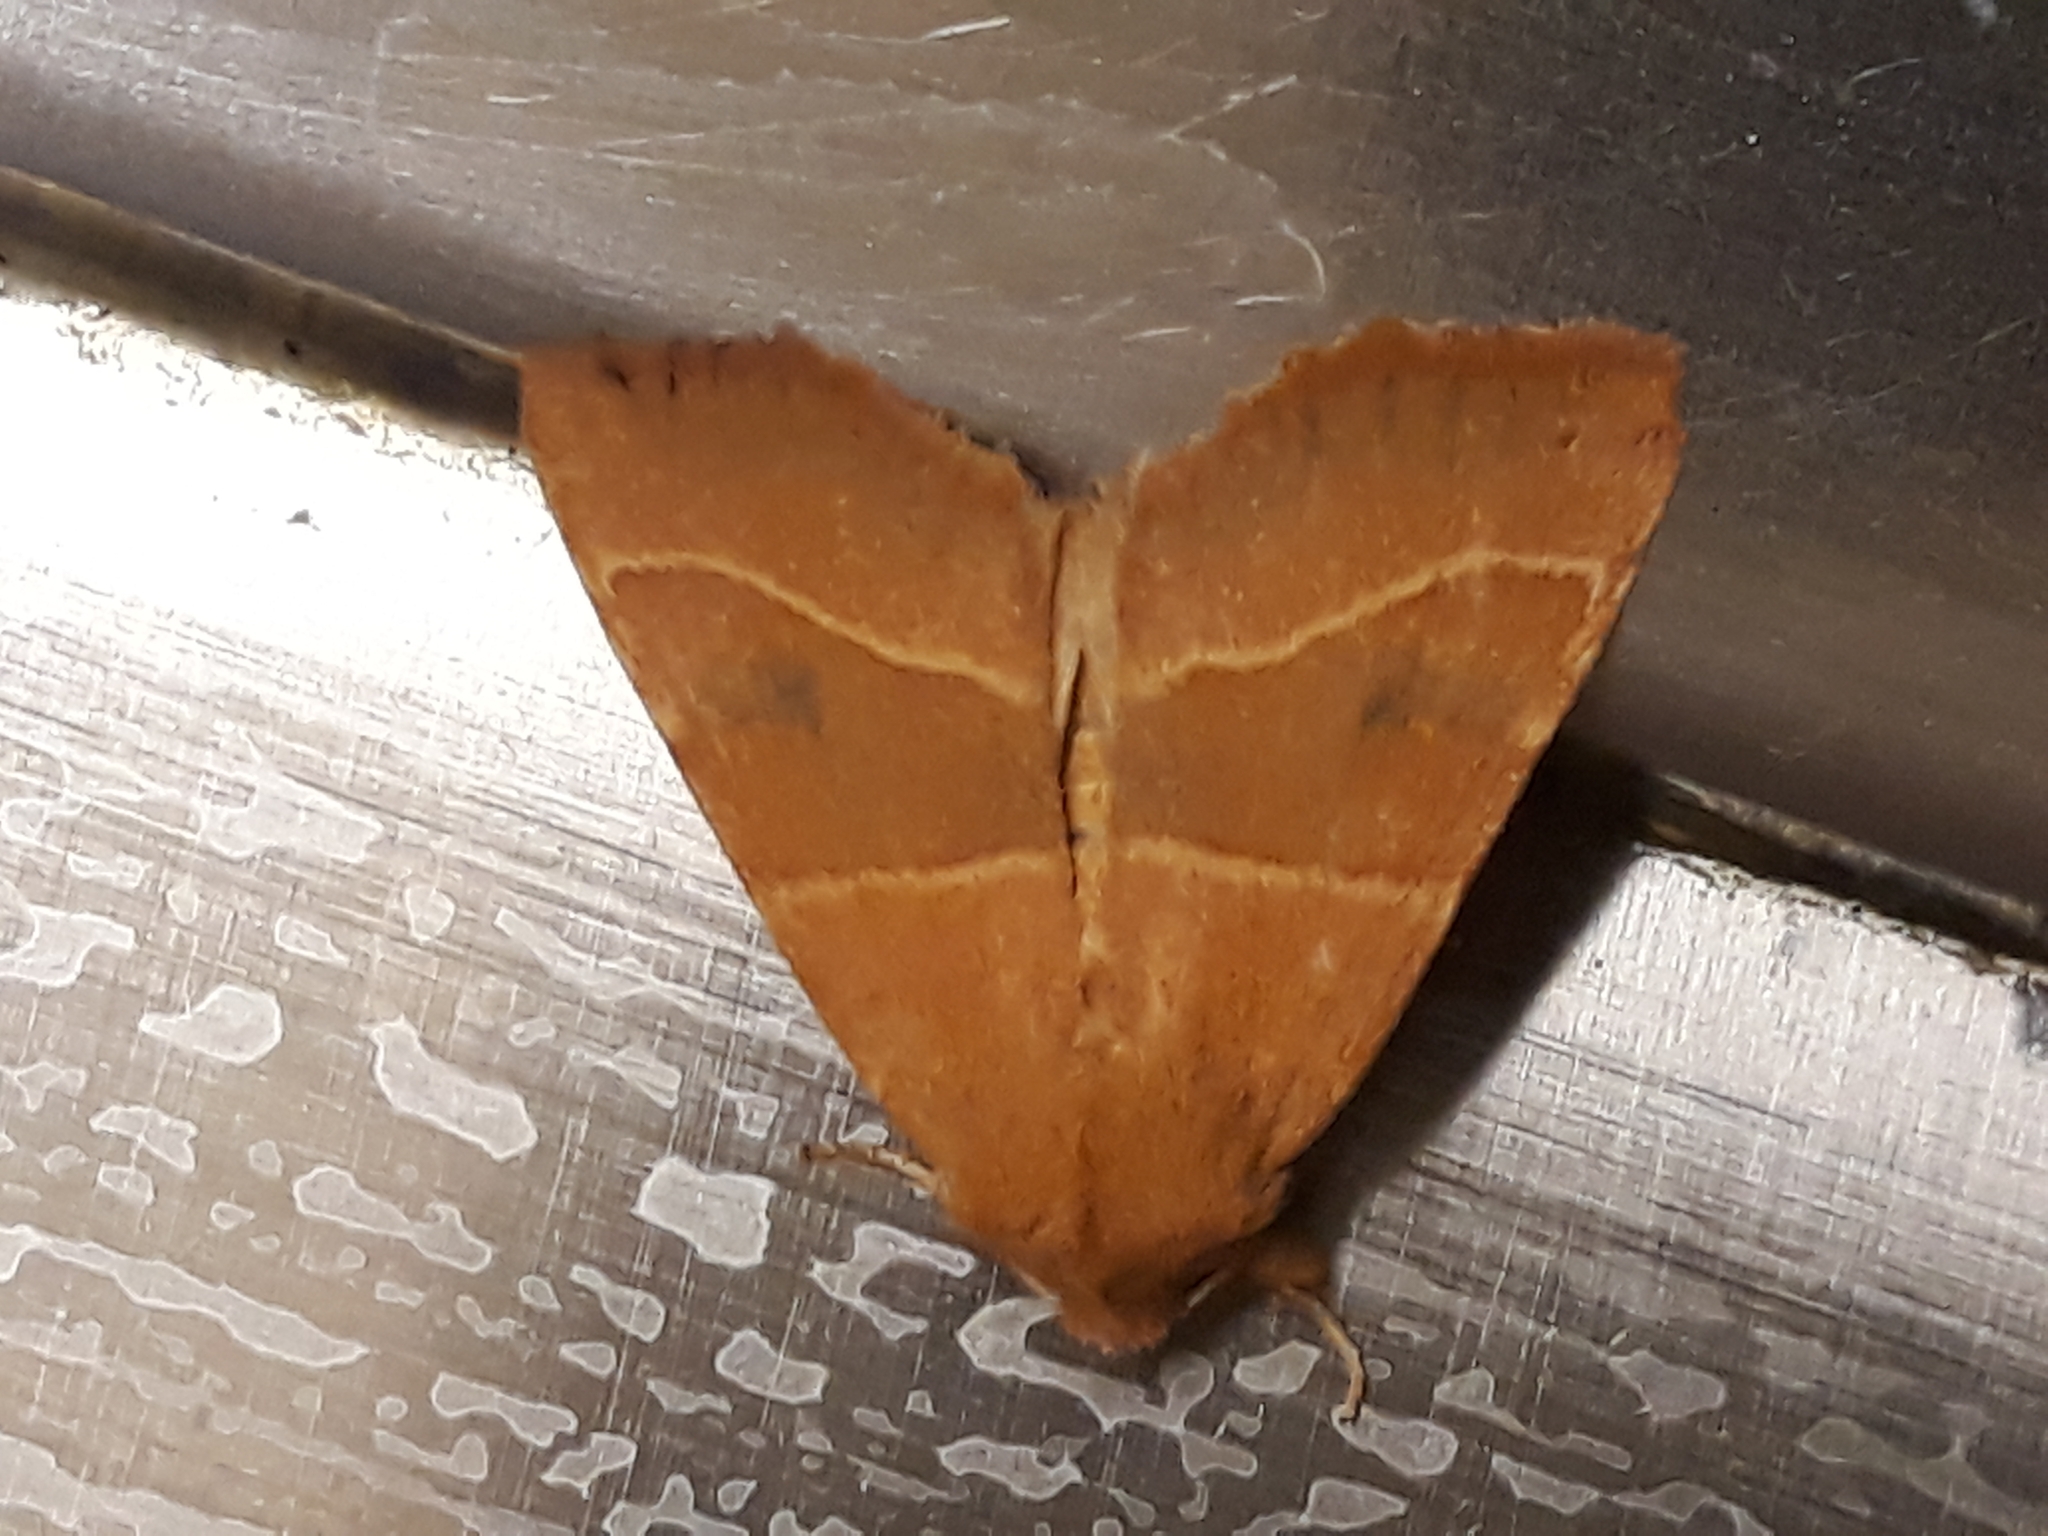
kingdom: Animalia
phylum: Arthropoda
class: Insecta
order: Lepidoptera
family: Noctuidae
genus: Atethmia
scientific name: Atethmia centrago
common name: Centre-barred sallow
